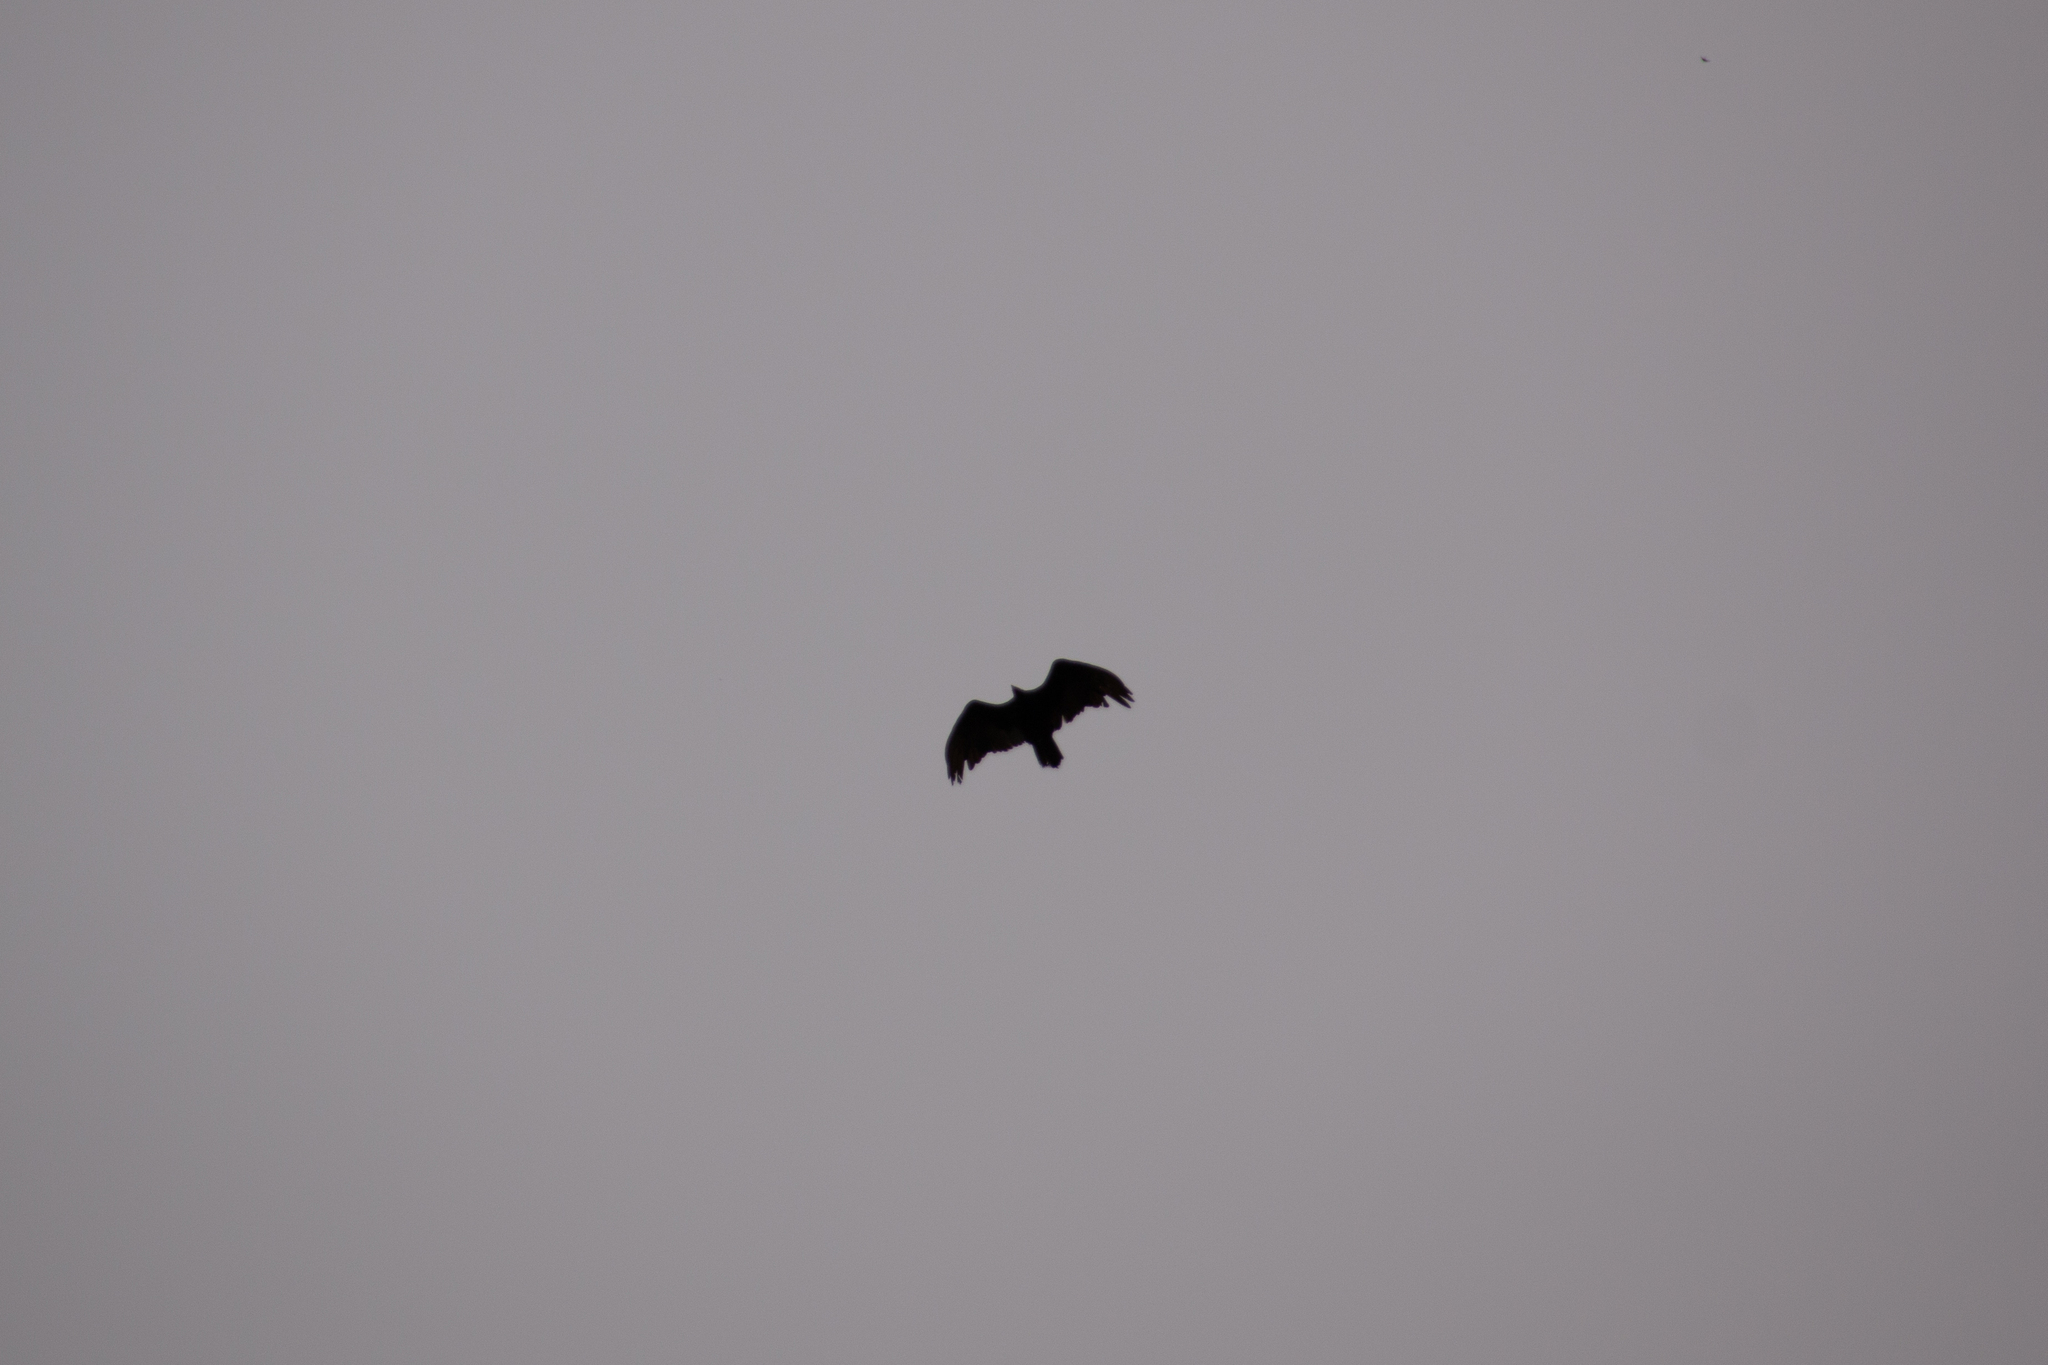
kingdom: Animalia
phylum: Chordata
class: Aves
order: Accipitriformes
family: Cathartidae
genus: Cathartes
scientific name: Cathartes aura
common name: Turkey vulture
